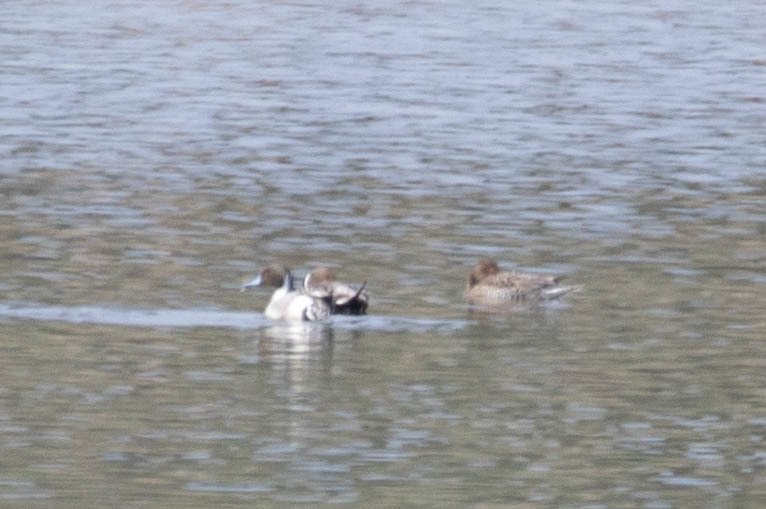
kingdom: Animalia
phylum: Chordata
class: Aves
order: Anseriformes
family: Anatidae
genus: Anas
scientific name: Anas acuta
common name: Northern pintail
